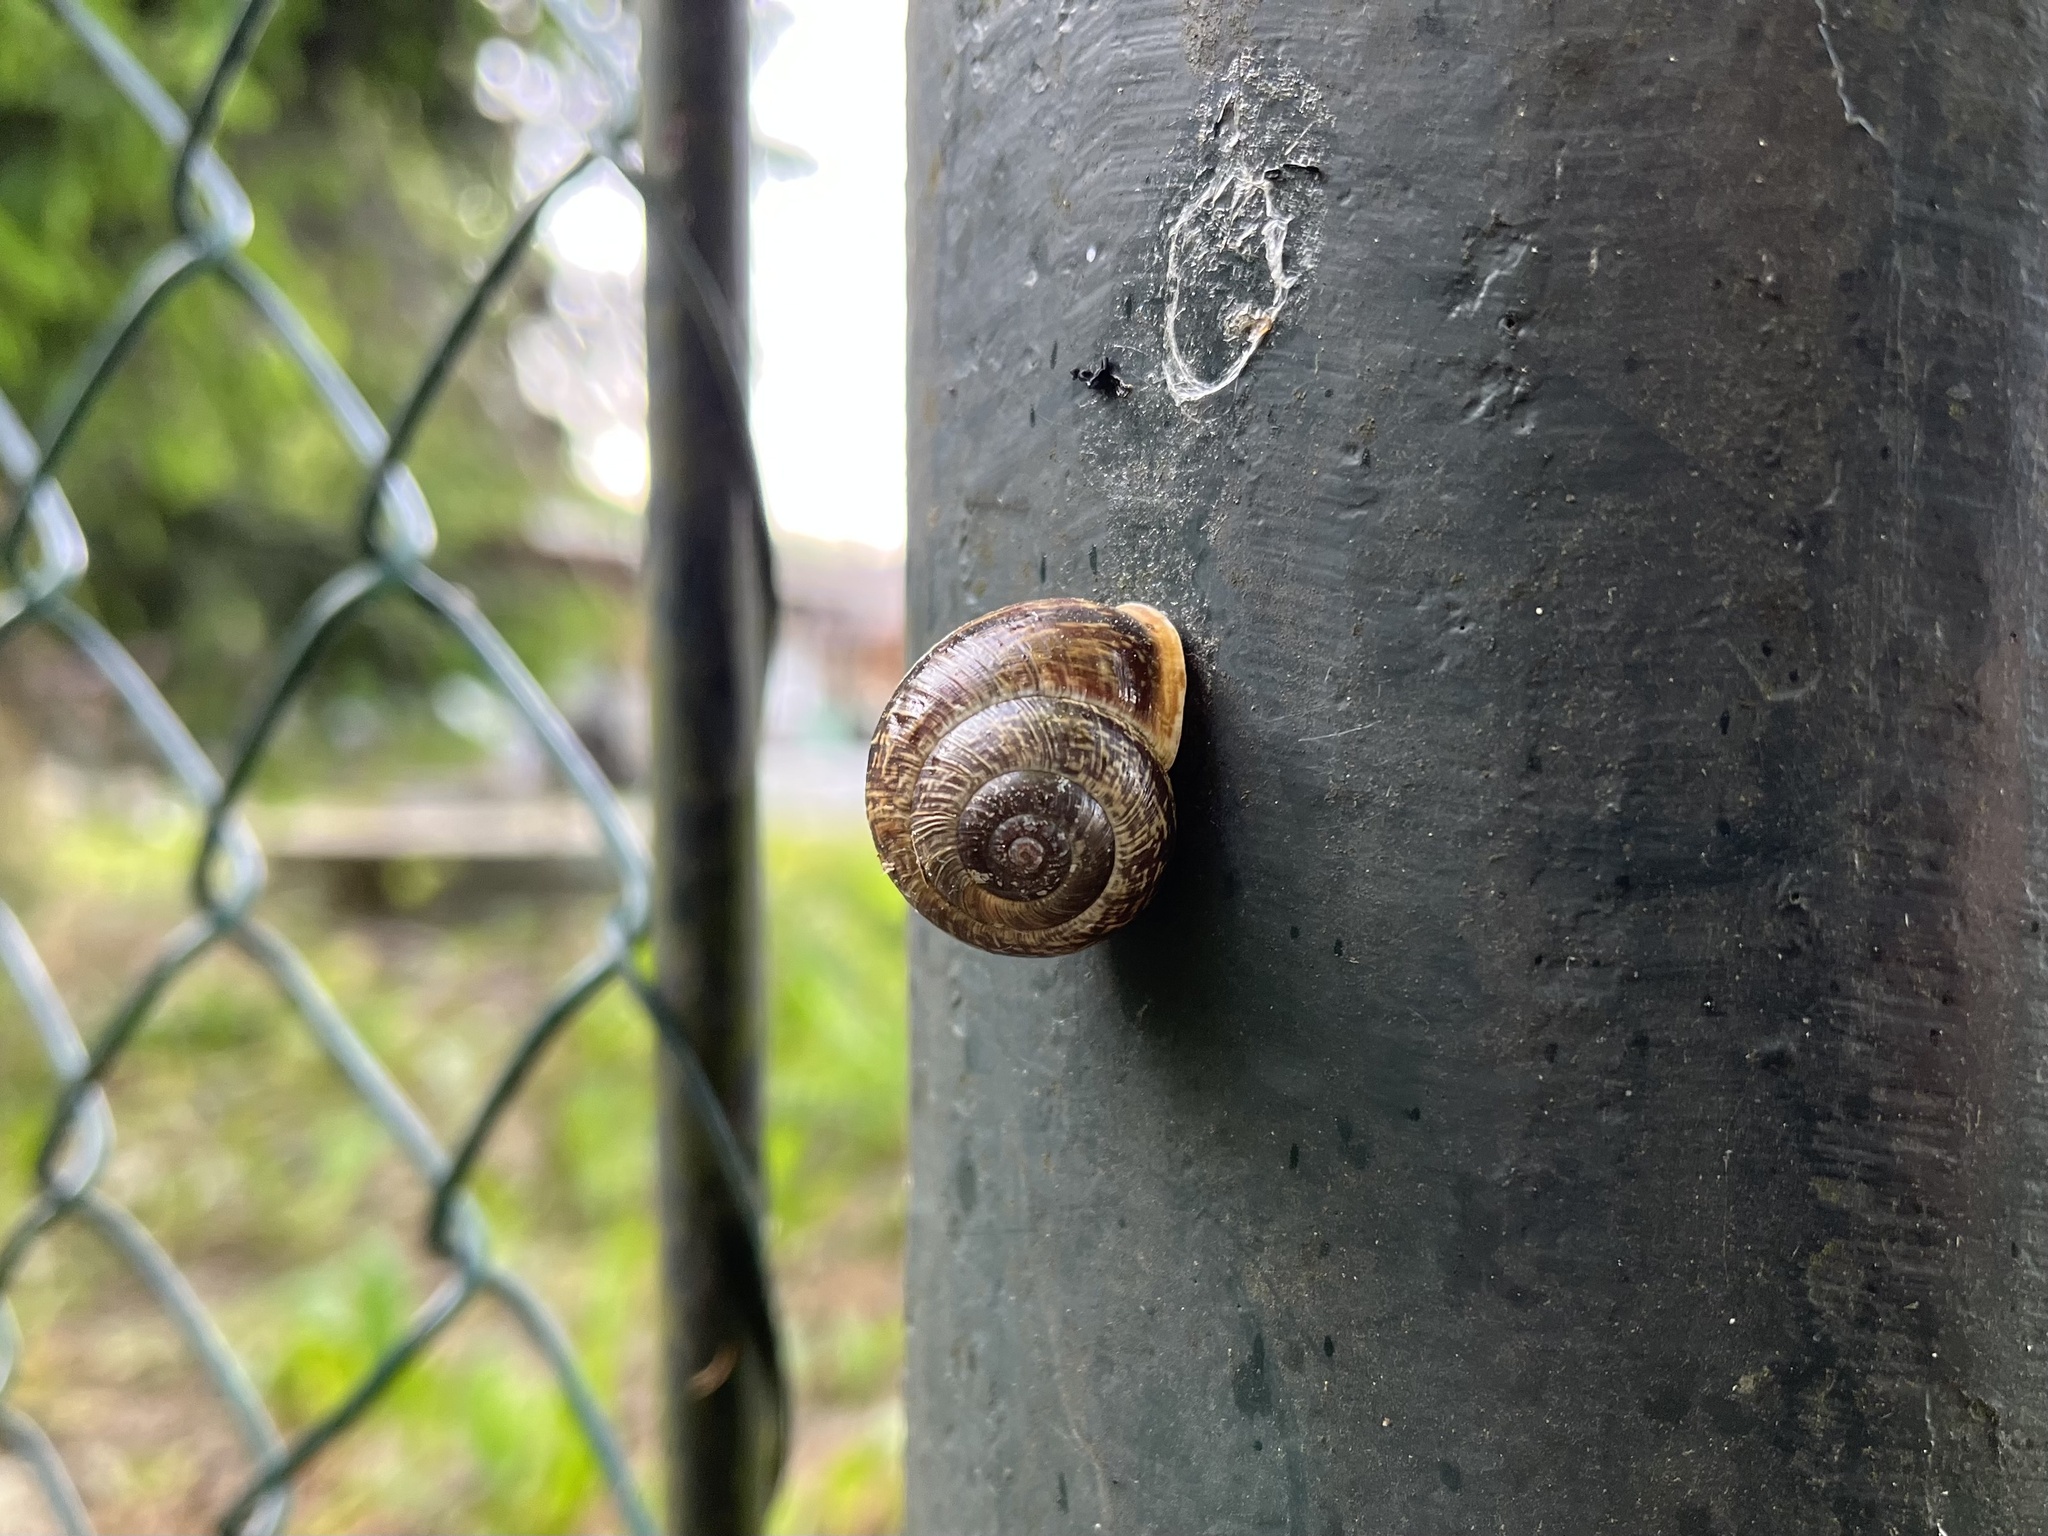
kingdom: Animalia
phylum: Mollusca
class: Gastropoda
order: Stylommatophora
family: Helicidae
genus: Arianta
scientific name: Arianta arbustorum
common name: Copse snail
